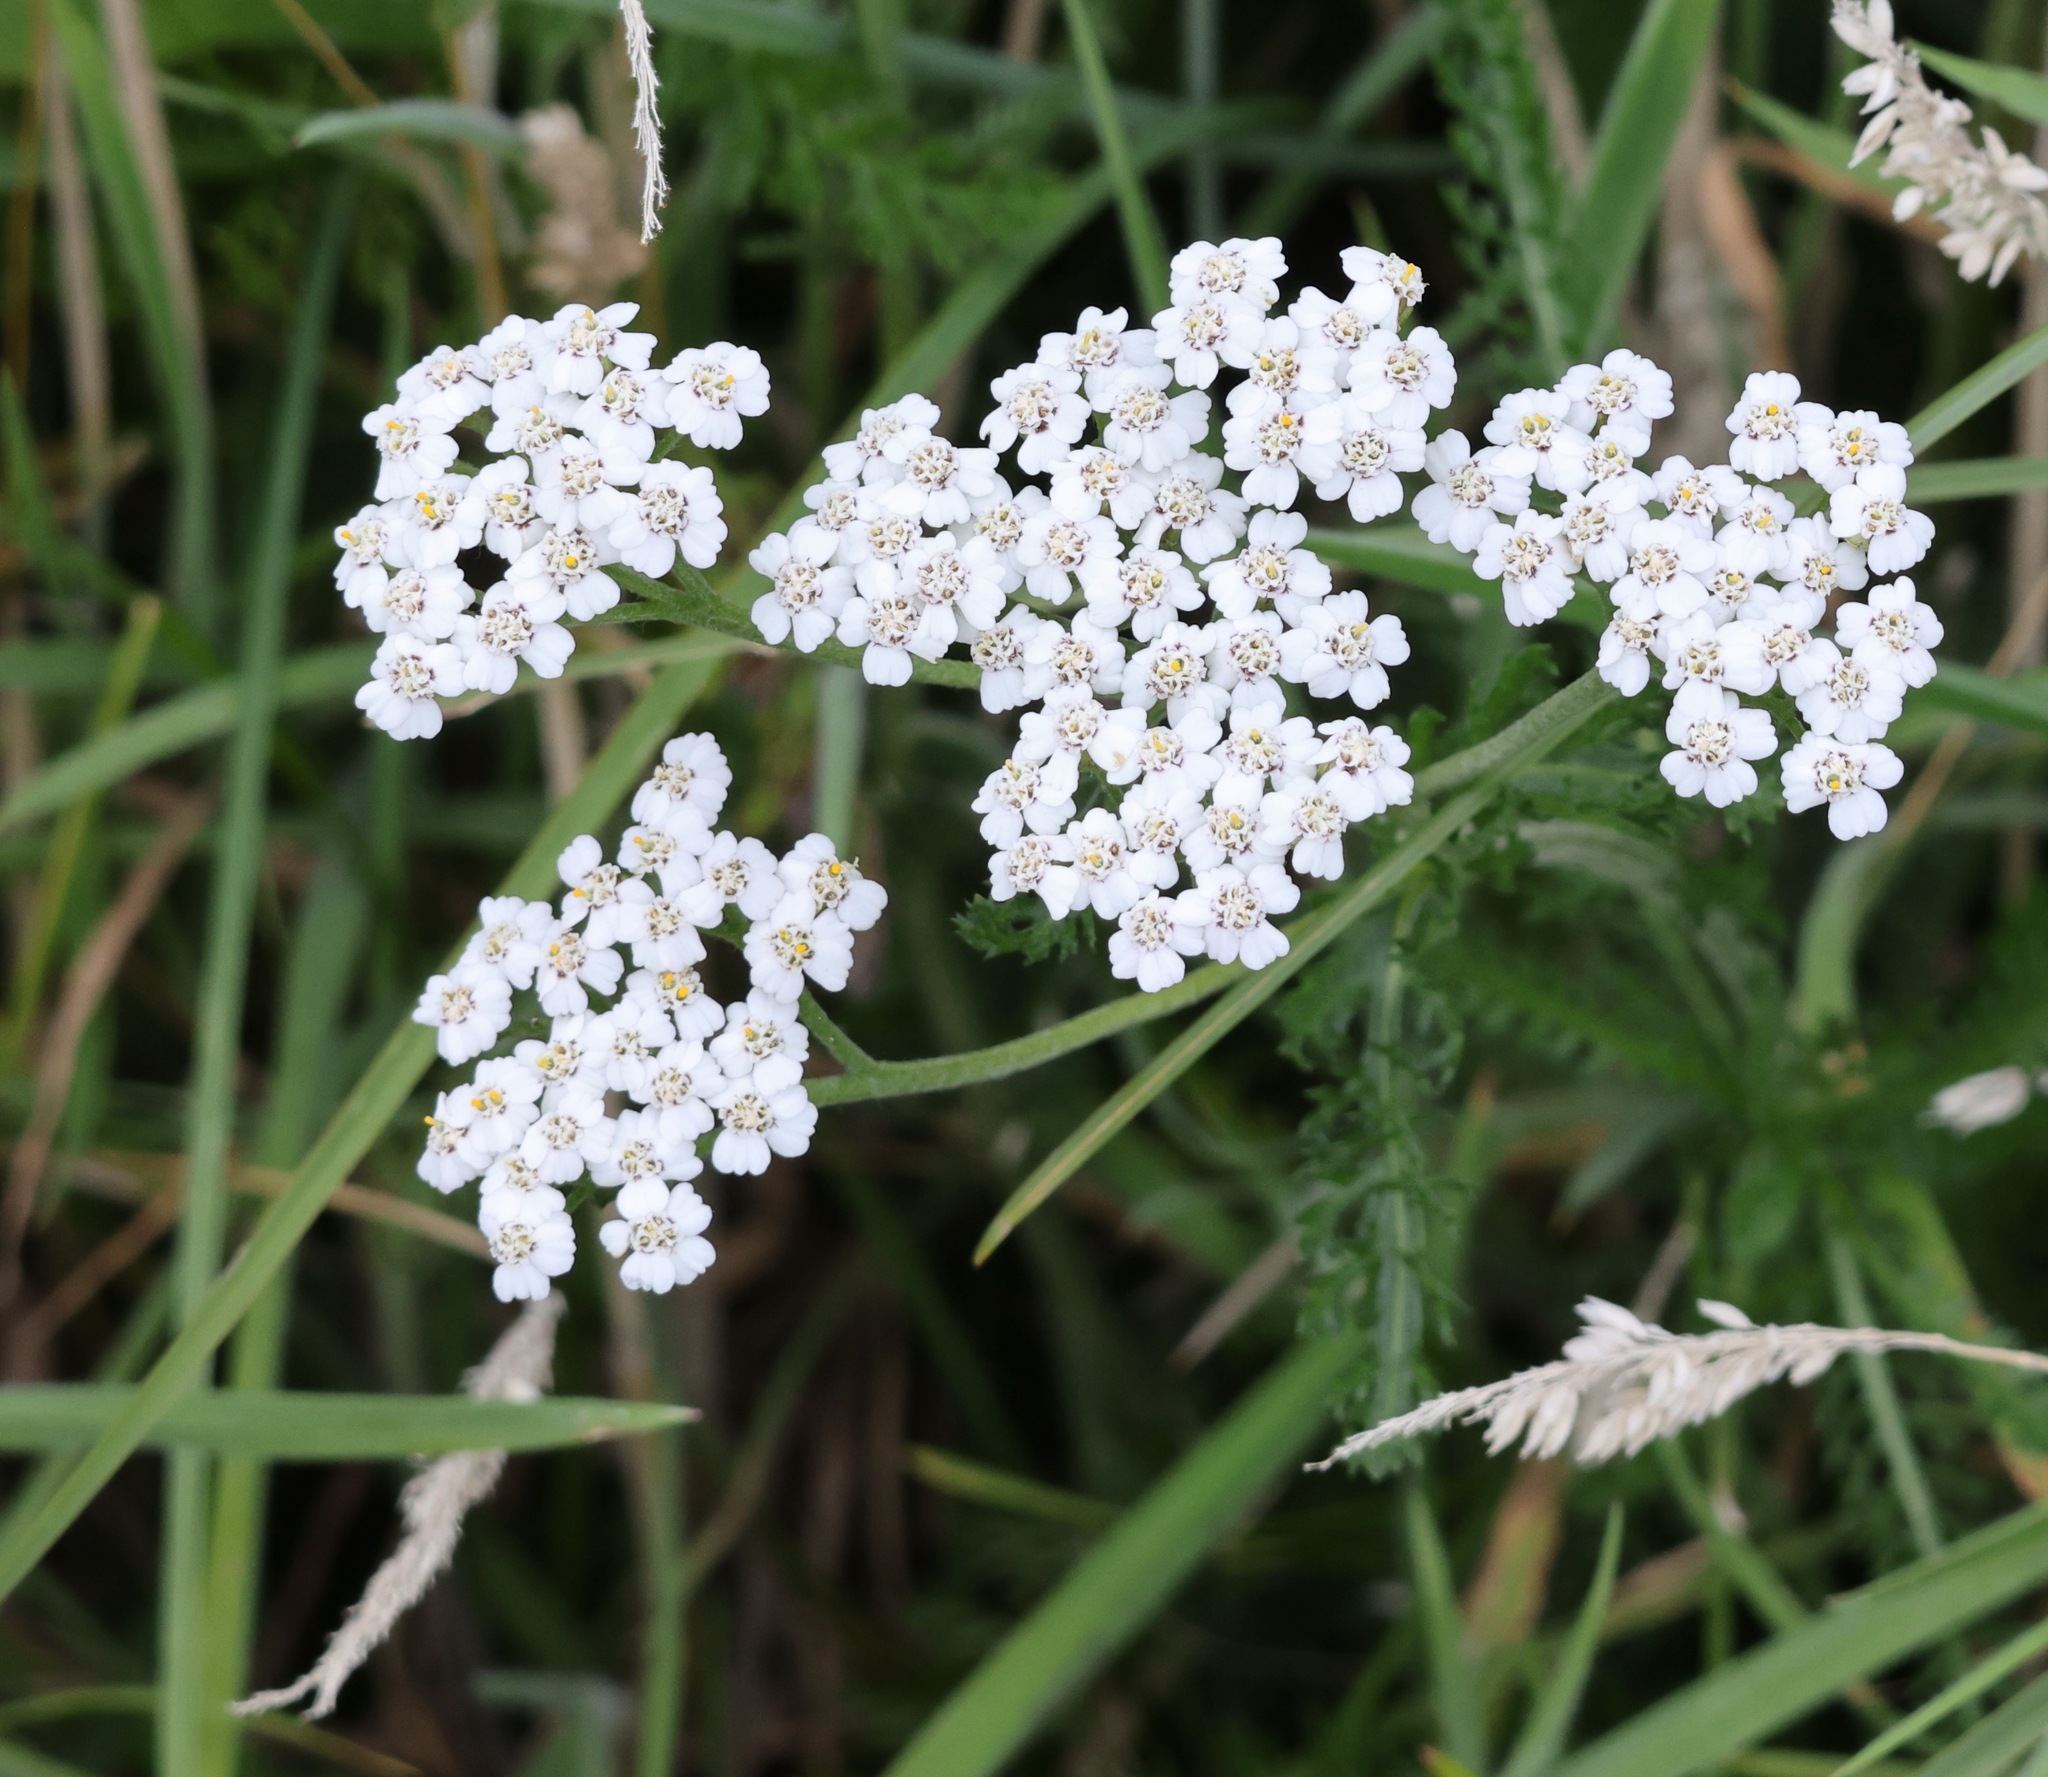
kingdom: Plantae
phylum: Tracheophyta
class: Magnoliopsida
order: Asterales
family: Asteraceae
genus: Achillea
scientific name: Achillea millefolium
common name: Yarrow
